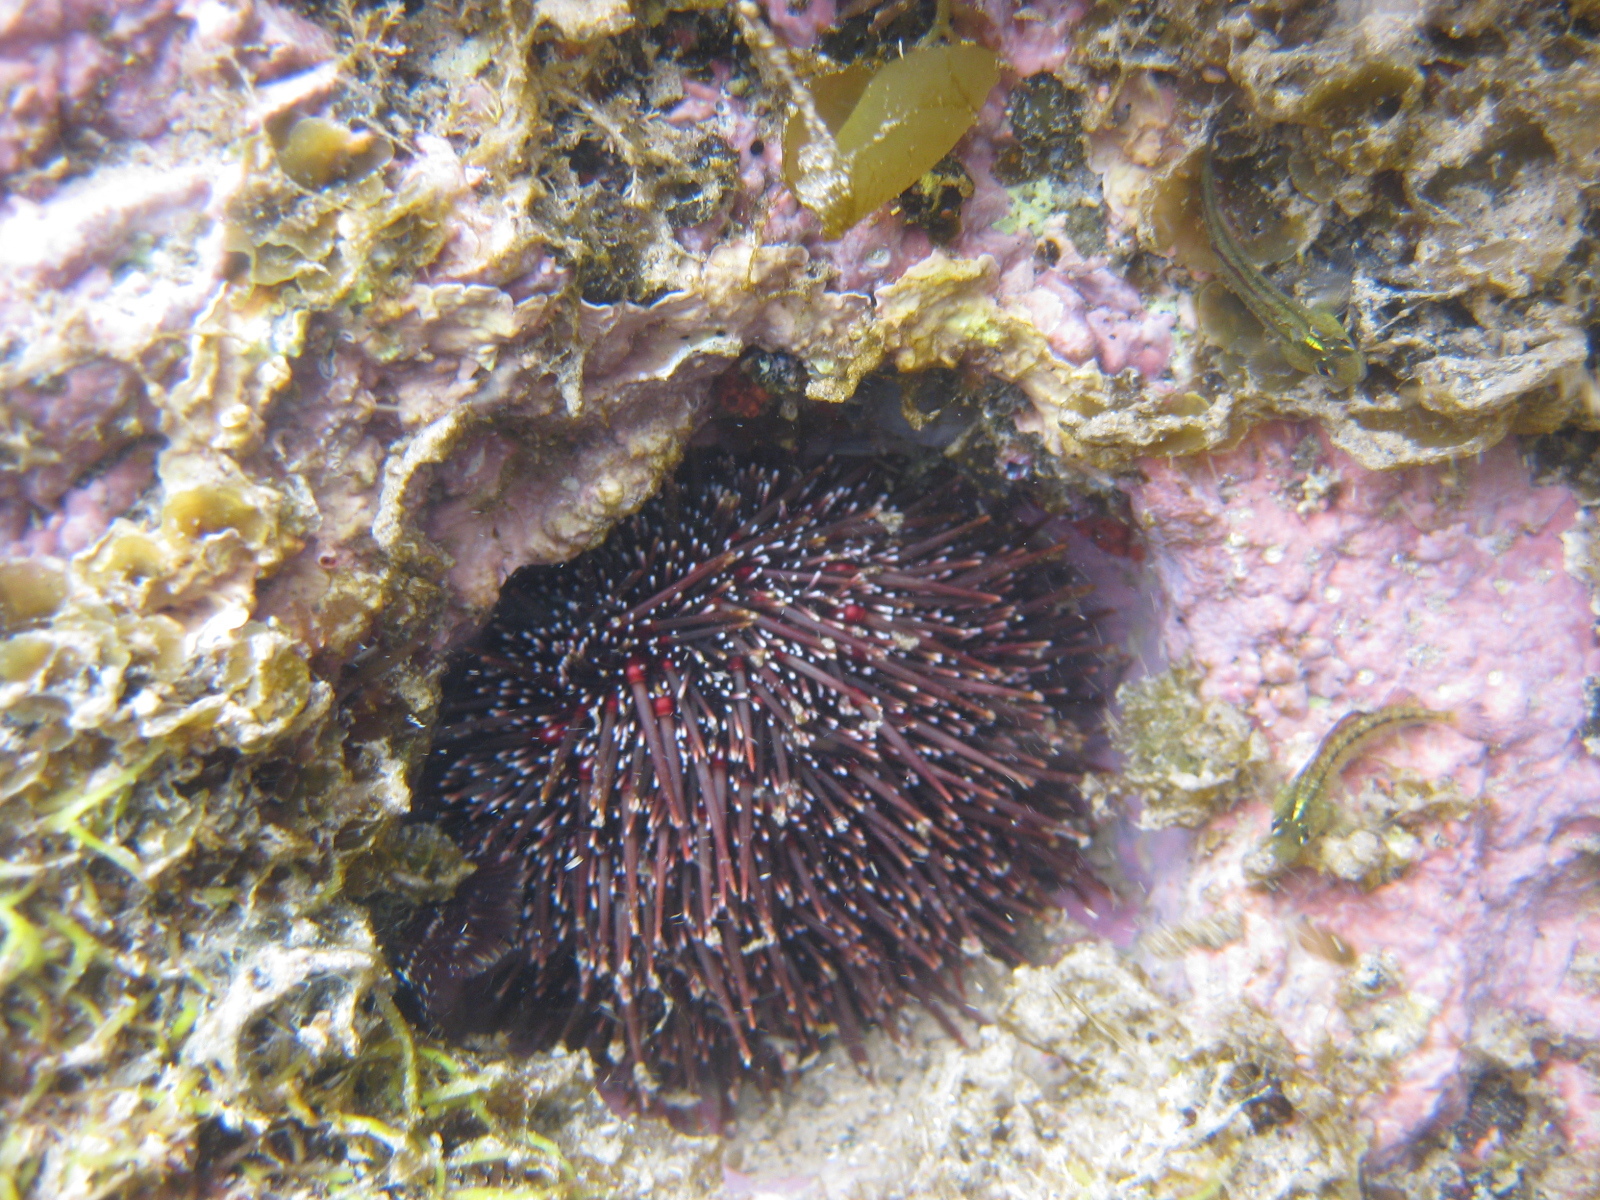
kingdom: Animalia
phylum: Echinodermata
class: Echinoidea
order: Camarodonta
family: Echinometridae
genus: Evechinus
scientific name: Evechinus chloroticus
